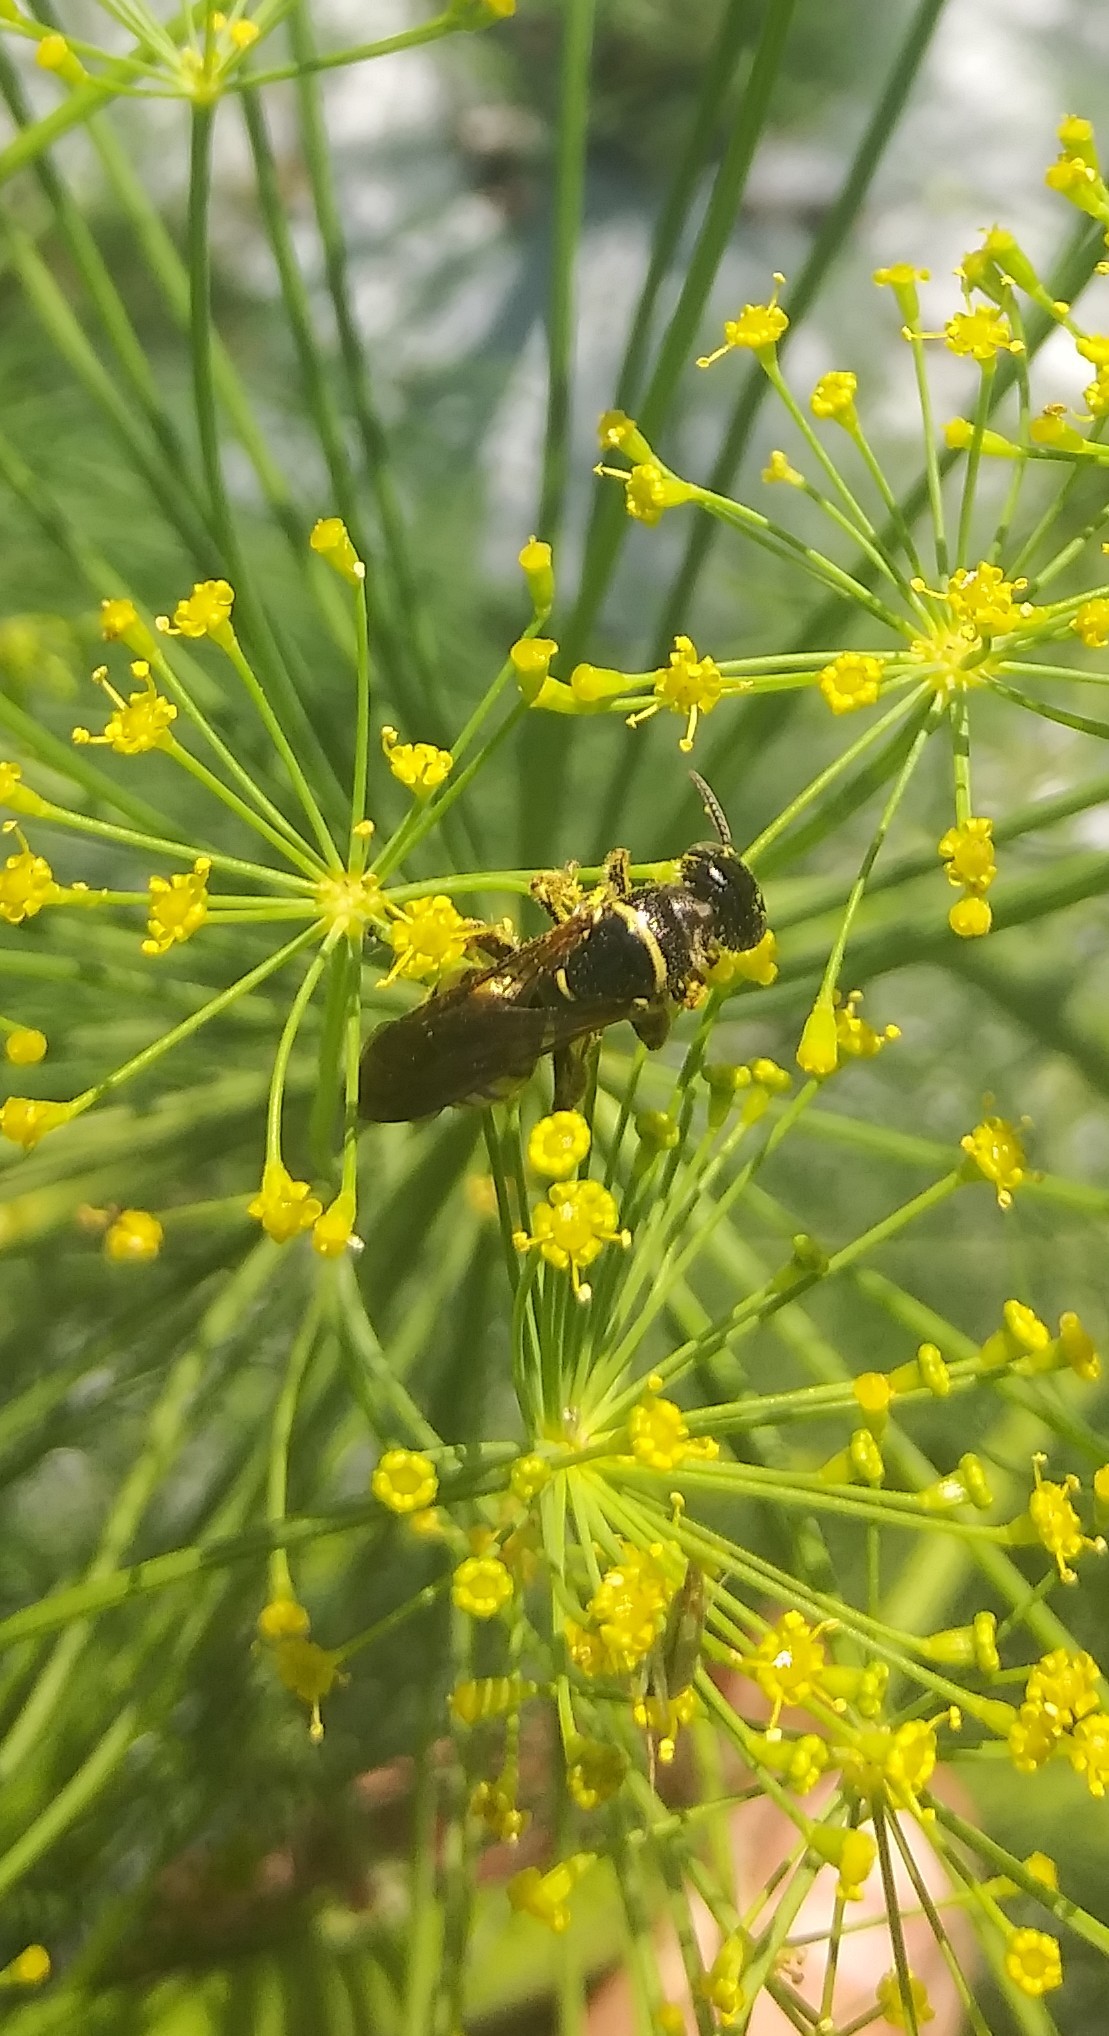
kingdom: Animalia
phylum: Arthropoda
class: Insecta
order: Hymenoptera
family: Tiphiidae
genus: Myzinum
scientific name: Myzinum carolinianum
